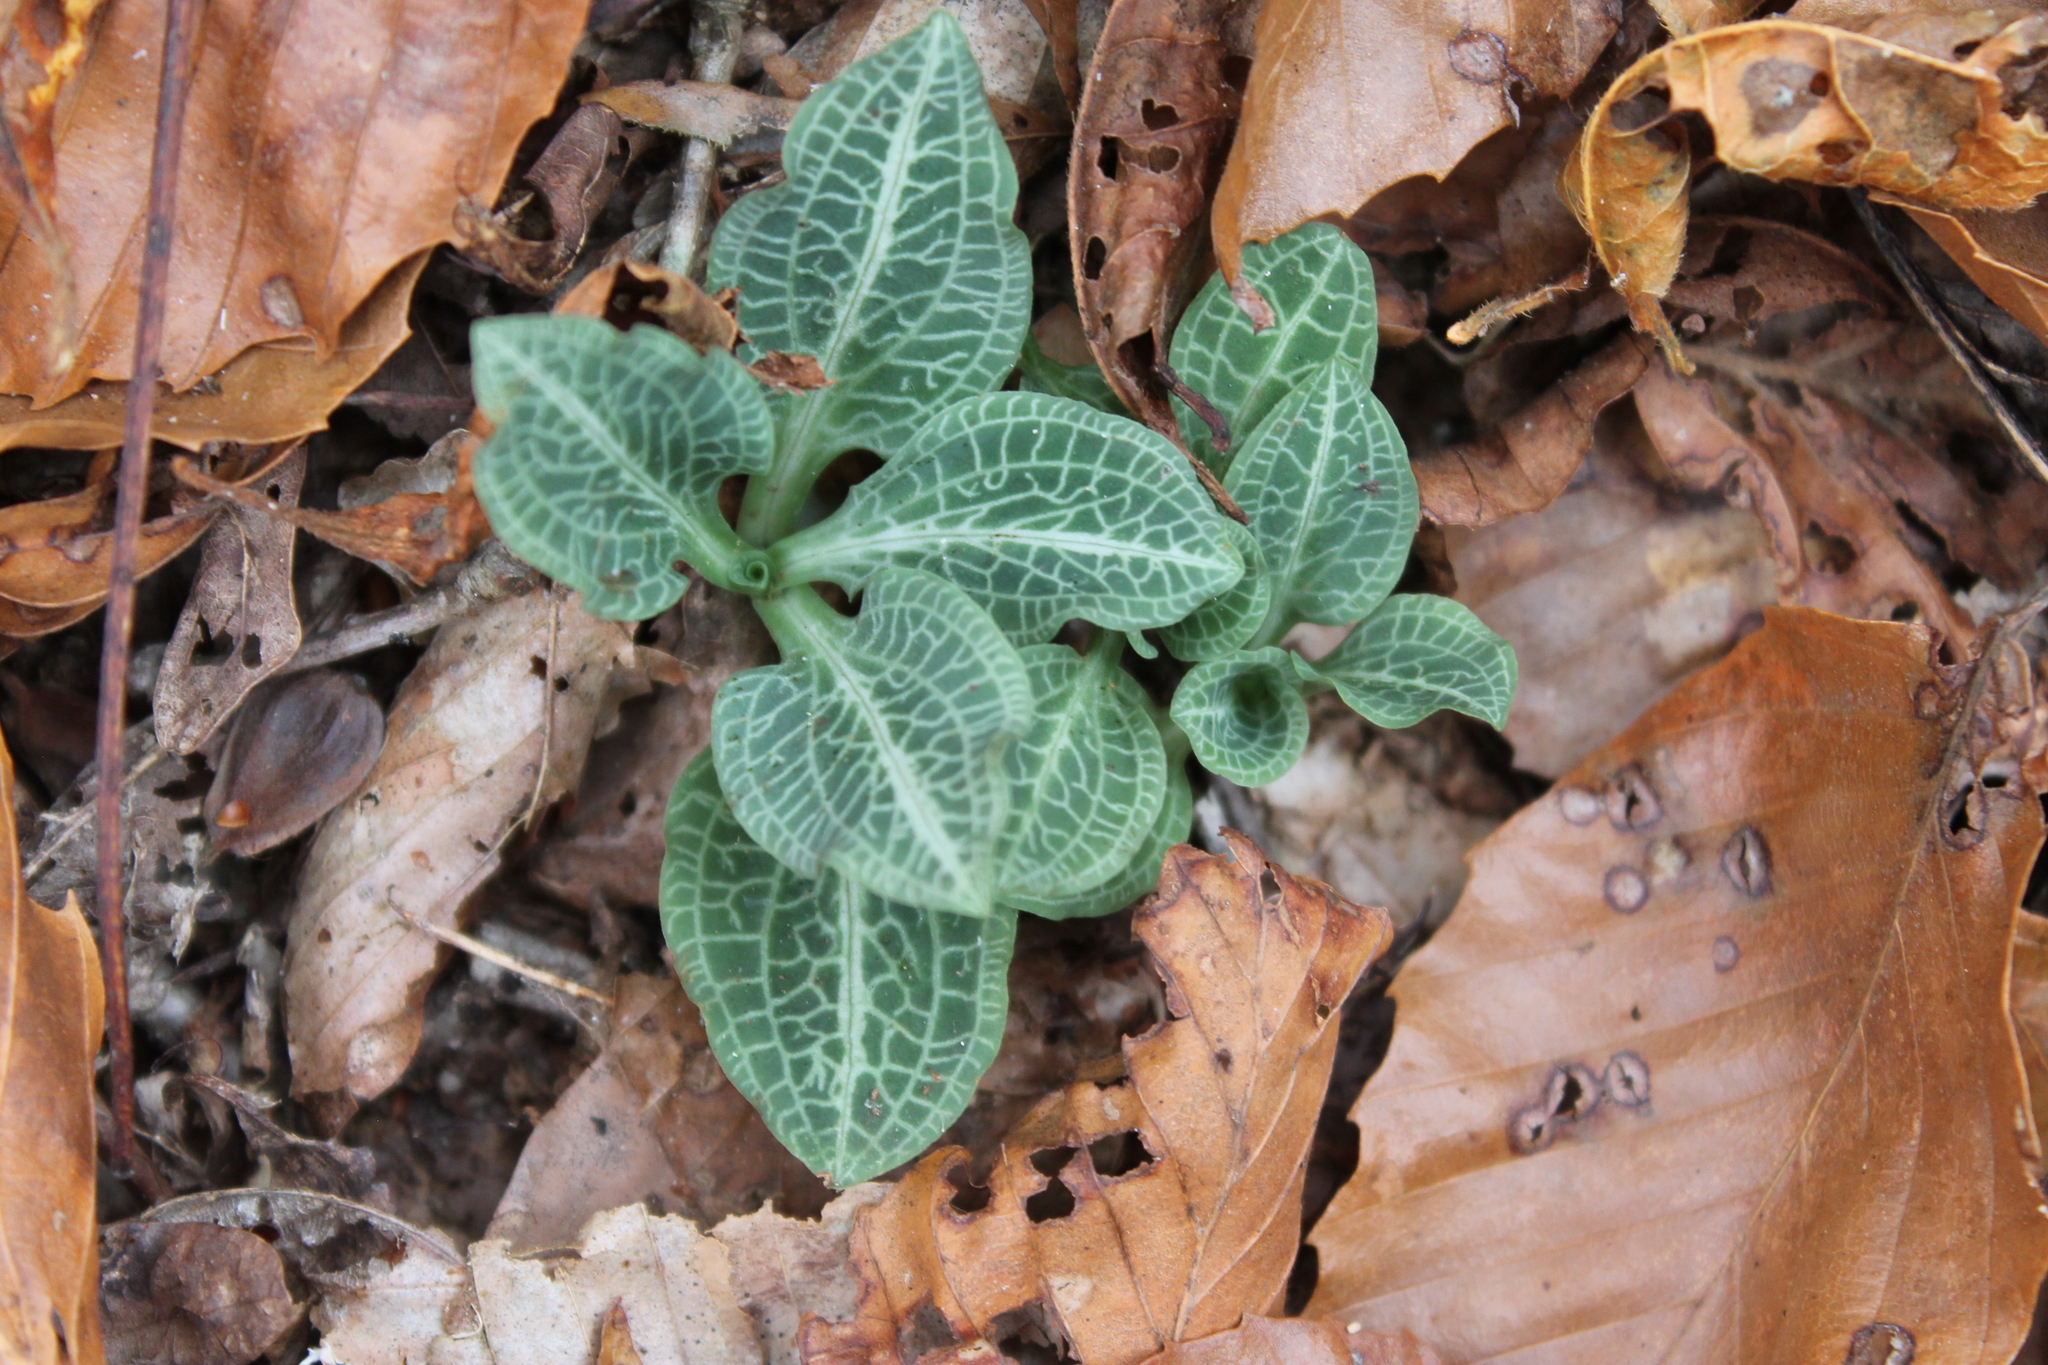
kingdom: Plantae
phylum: Tracheophyta
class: Liliopsida
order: Asparagales
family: Orchidaceae
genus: Goodyera
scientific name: Goodyera pubescens
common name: Downy rattlesnake-plantain
